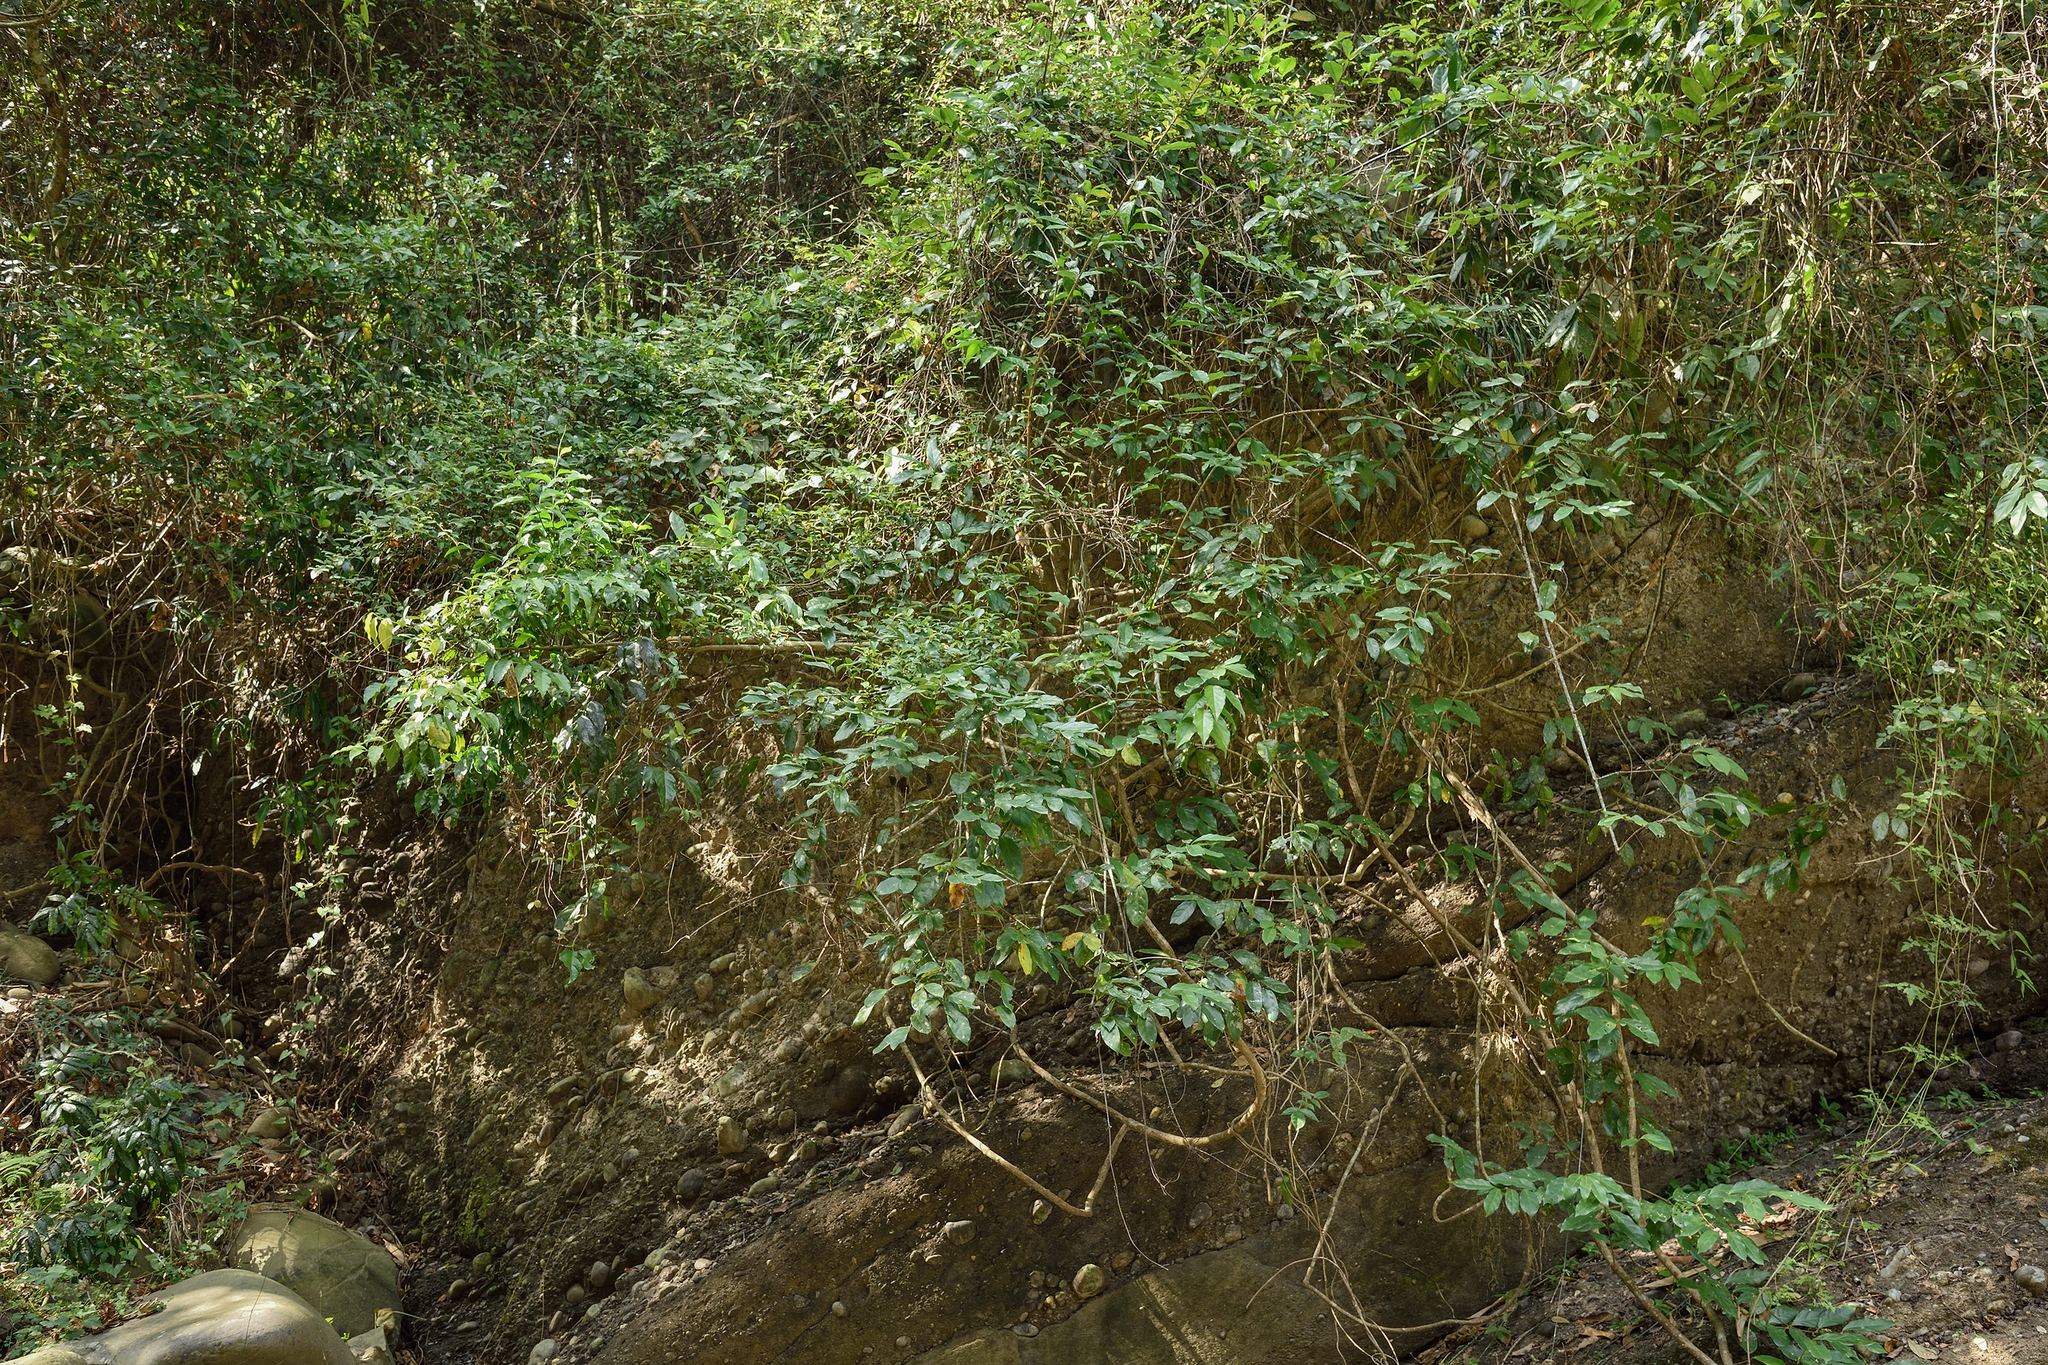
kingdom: Plantae
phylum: Tracheophyta
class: Magnoliopsida
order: Malpighiales
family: Malpighiaceae
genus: Hiptage
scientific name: Hiptage benghalensis
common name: Hiptage
